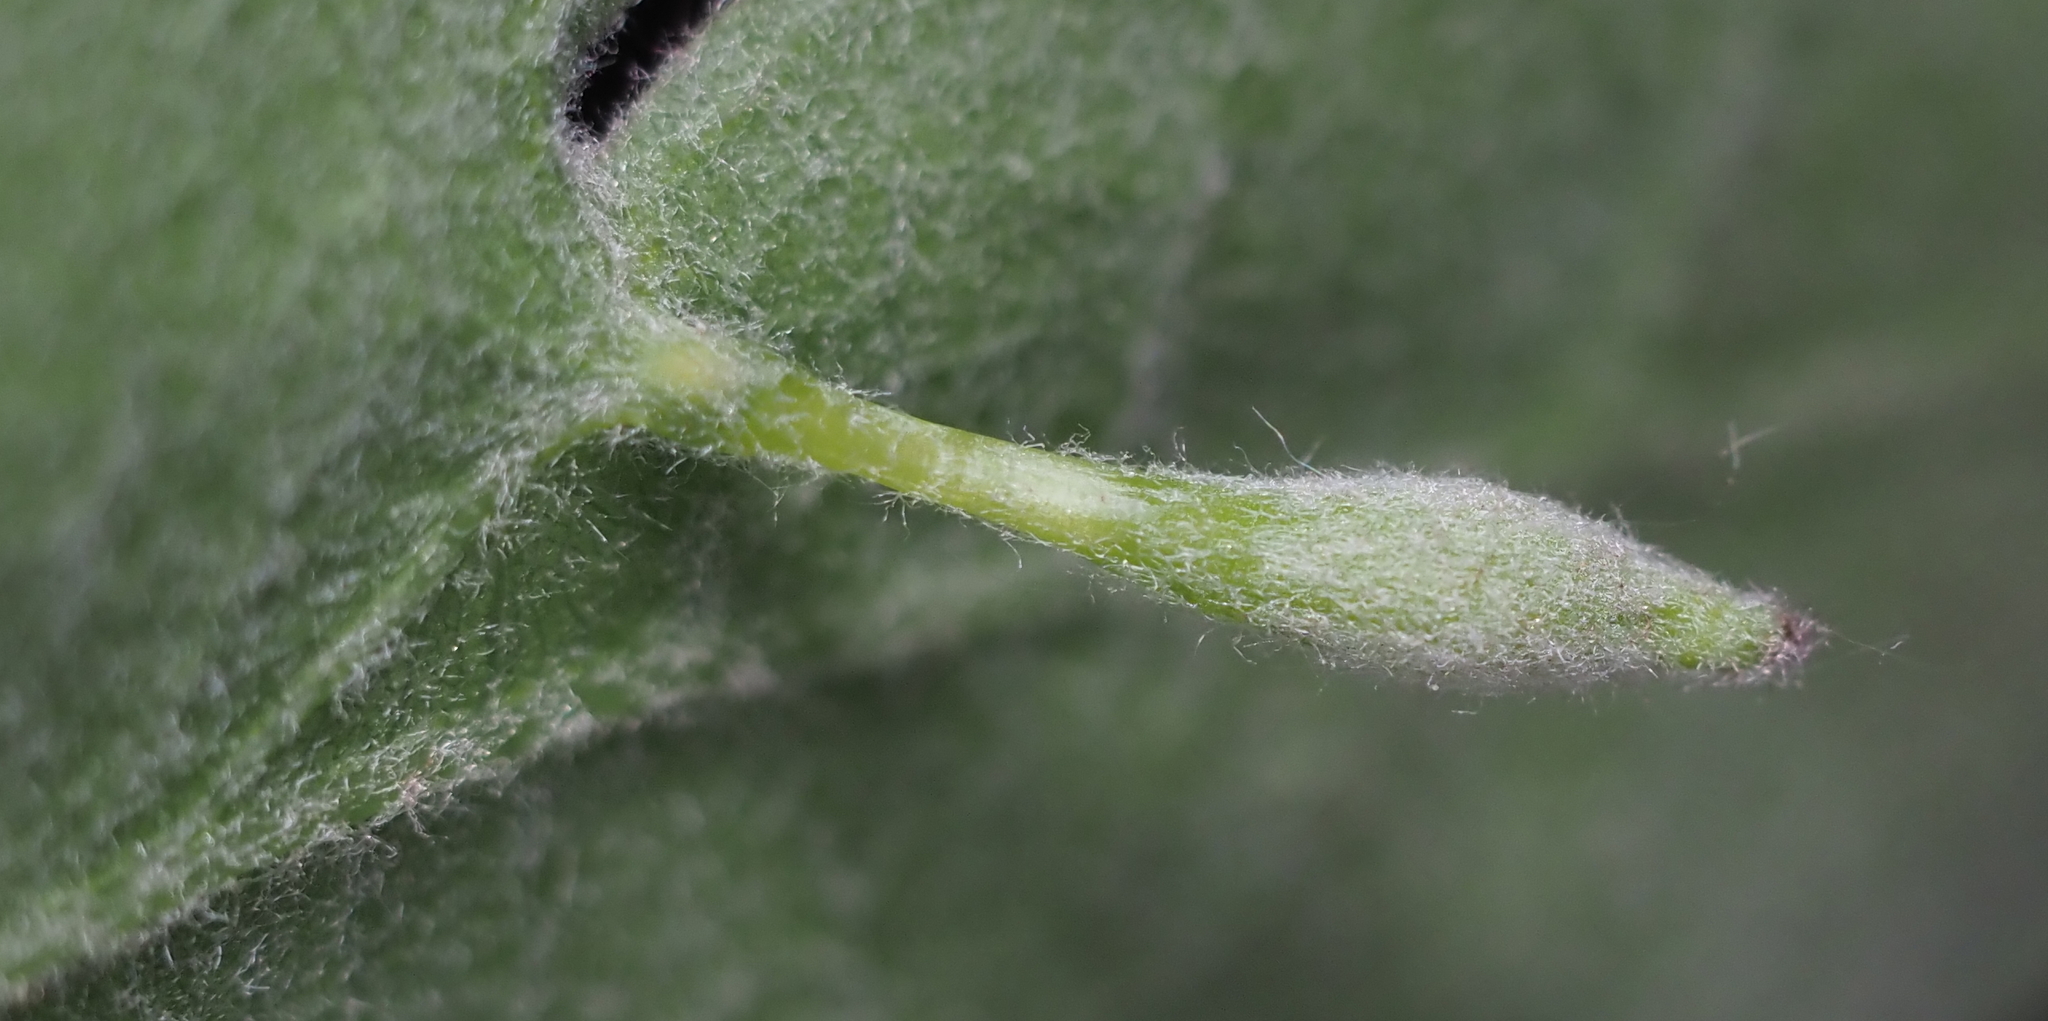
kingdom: Animalia
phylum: Arthropoda
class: Insecta
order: Hymenoptera
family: Cynipidae
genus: Andricus
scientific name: Andricus
